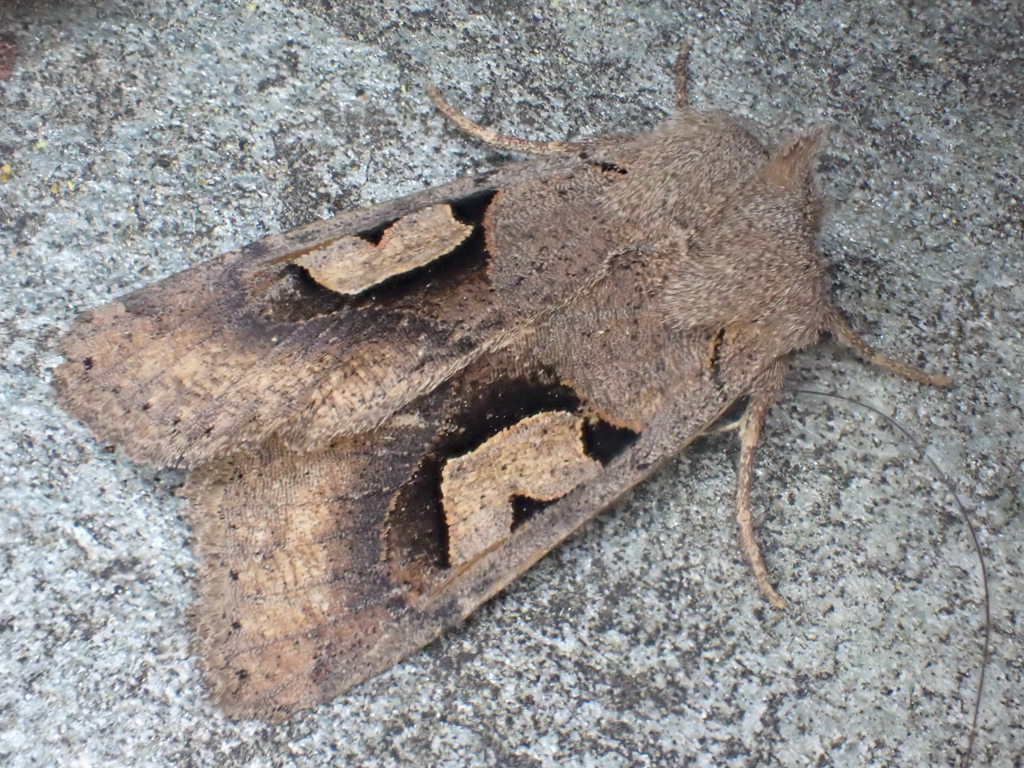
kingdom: Animalia
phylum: Arthropoda
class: Insecta
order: Lepidoptera
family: Noctuidae
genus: Acerra
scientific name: Acerra normalis
